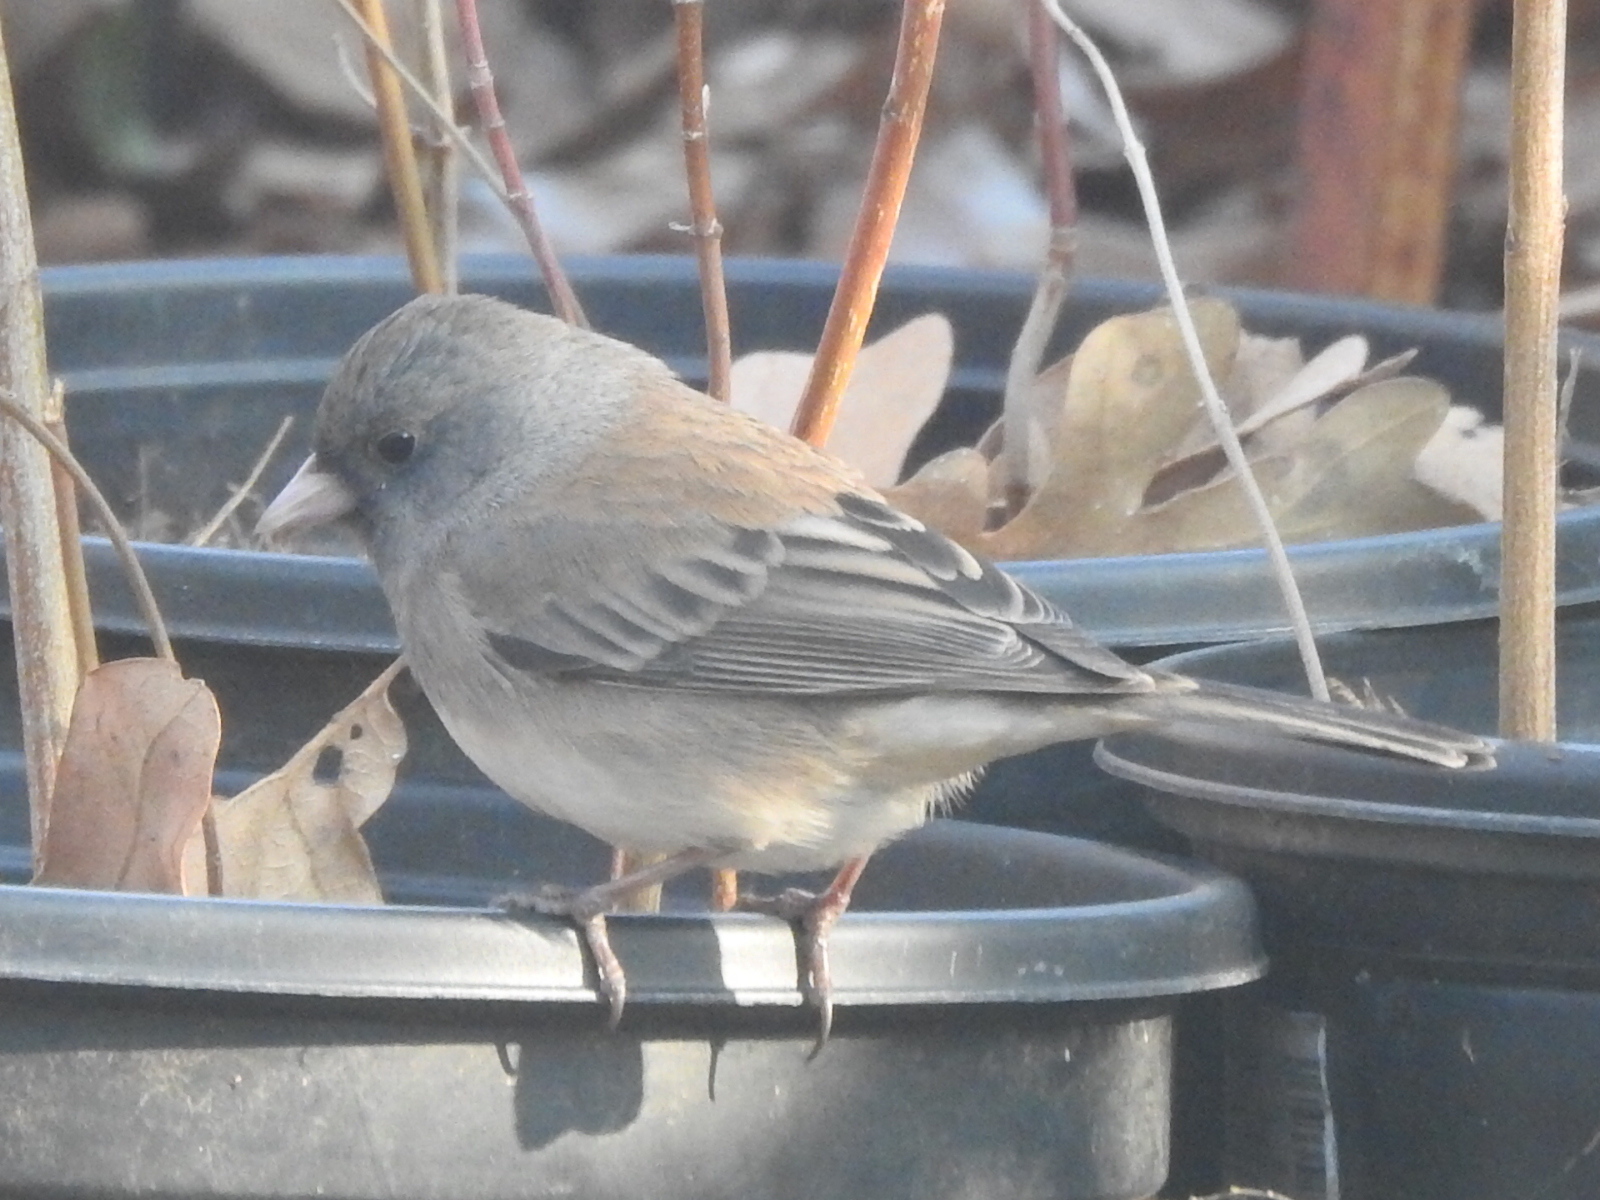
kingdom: Animalia
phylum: Chordata
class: Aves
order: Passeriformes
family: Passerellidae
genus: Junco
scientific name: Junco hyemalis
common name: Dark-eyed junco
